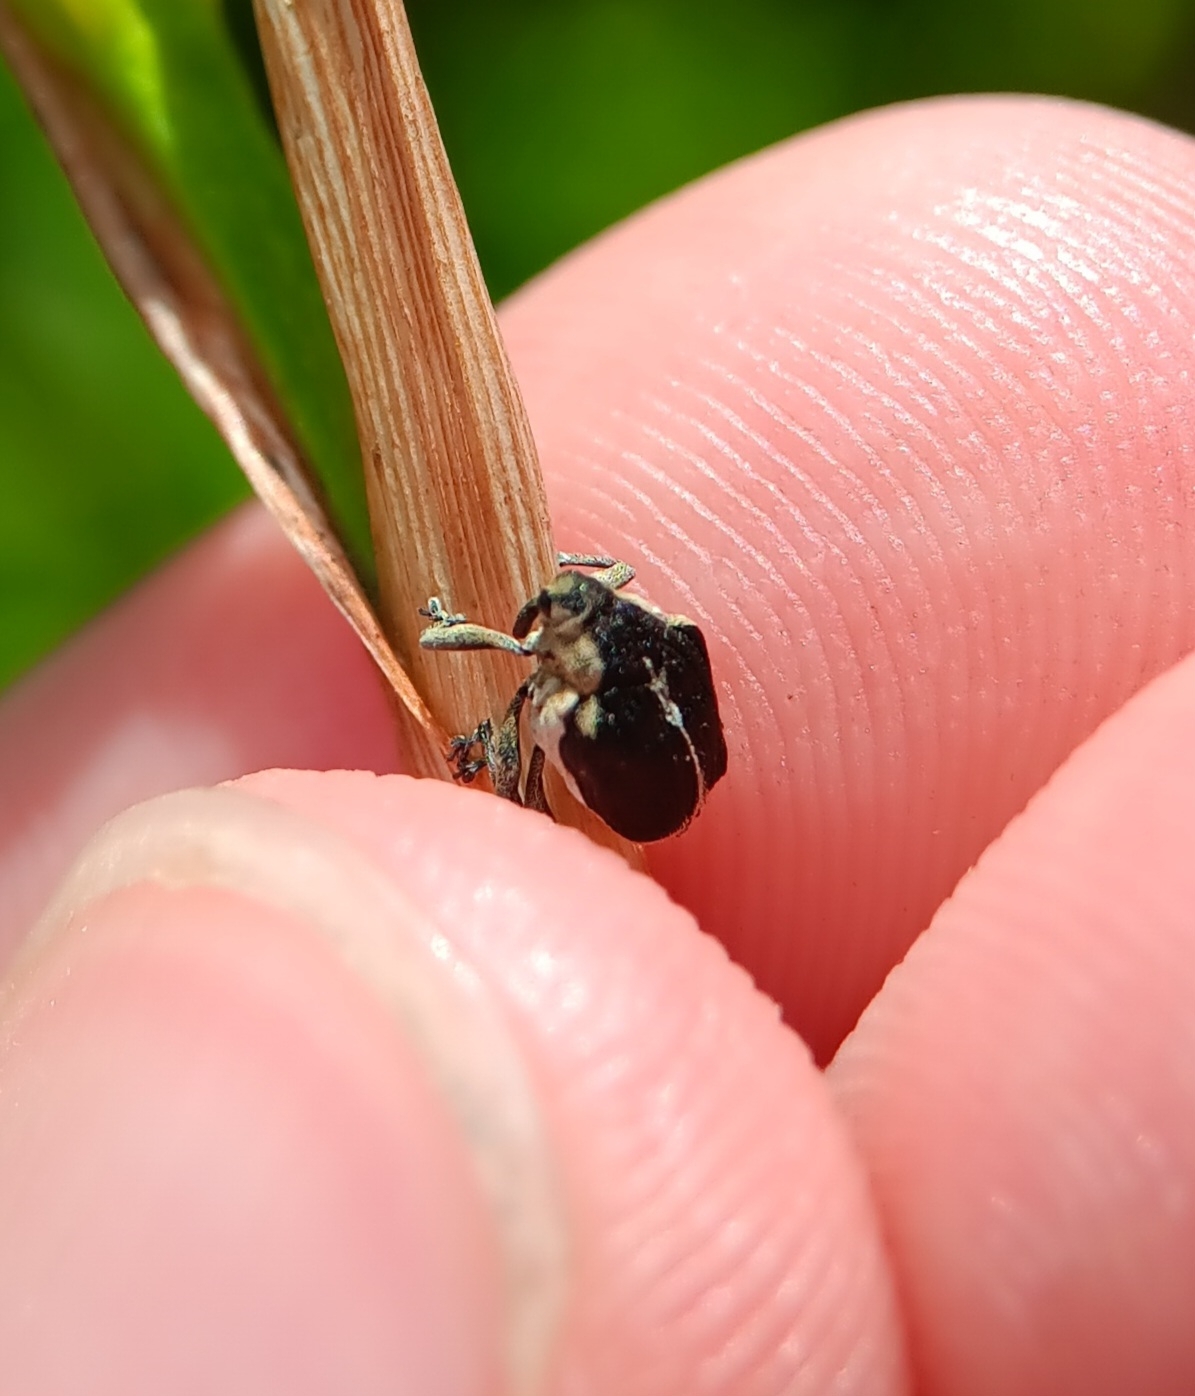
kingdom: Animalia
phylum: Arthropoda
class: Insecta
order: Coleoptera
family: Curculionidae
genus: Mononychus
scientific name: Mononychus vulpeculus
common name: Iris weevil
